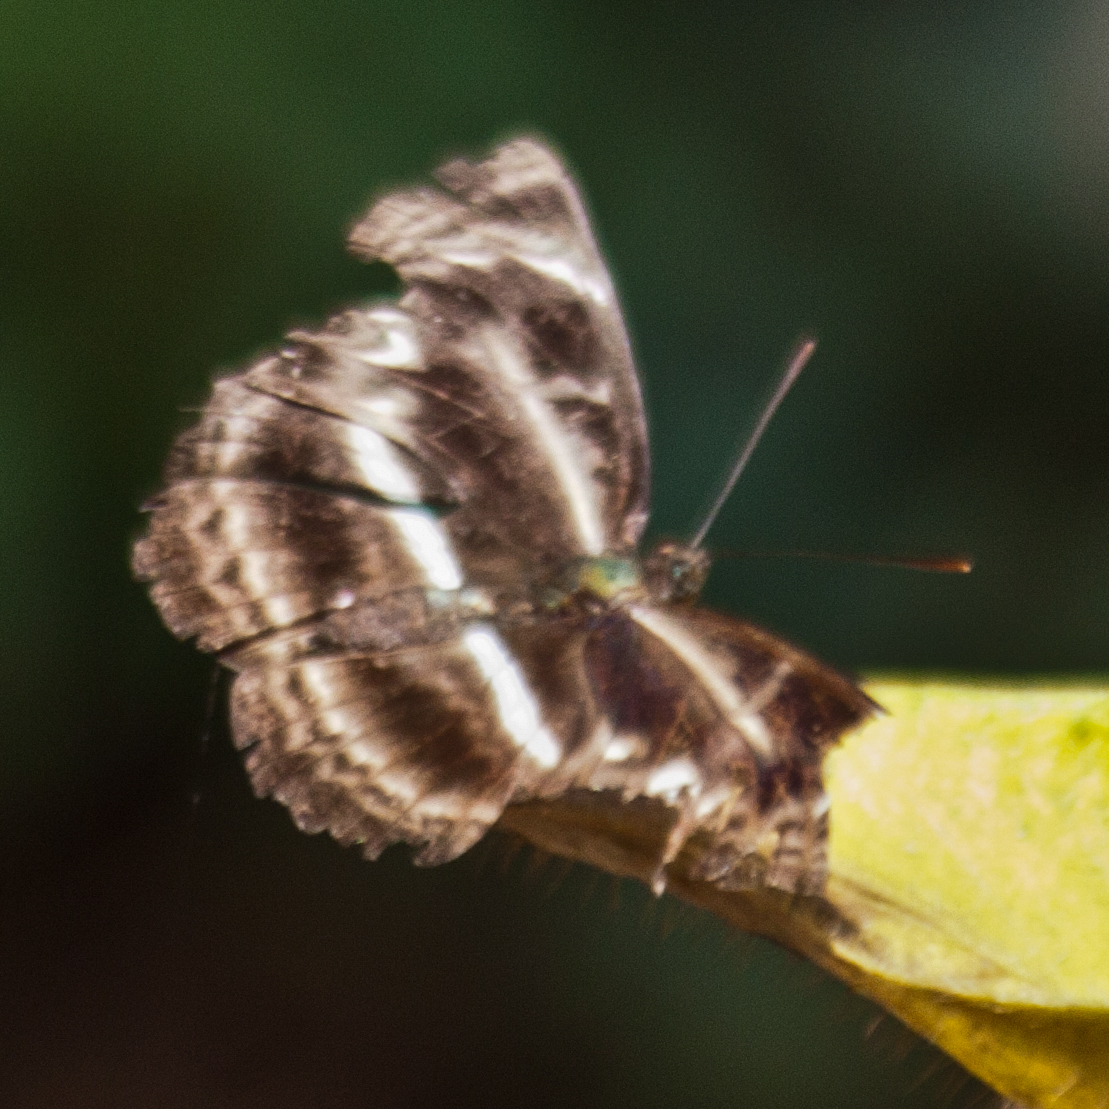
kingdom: Animalia
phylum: Arthropoda
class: Insecta
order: Lepidoptera
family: Nymphalidae
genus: Neptis
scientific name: Neptis harita
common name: Chocolate sailer
